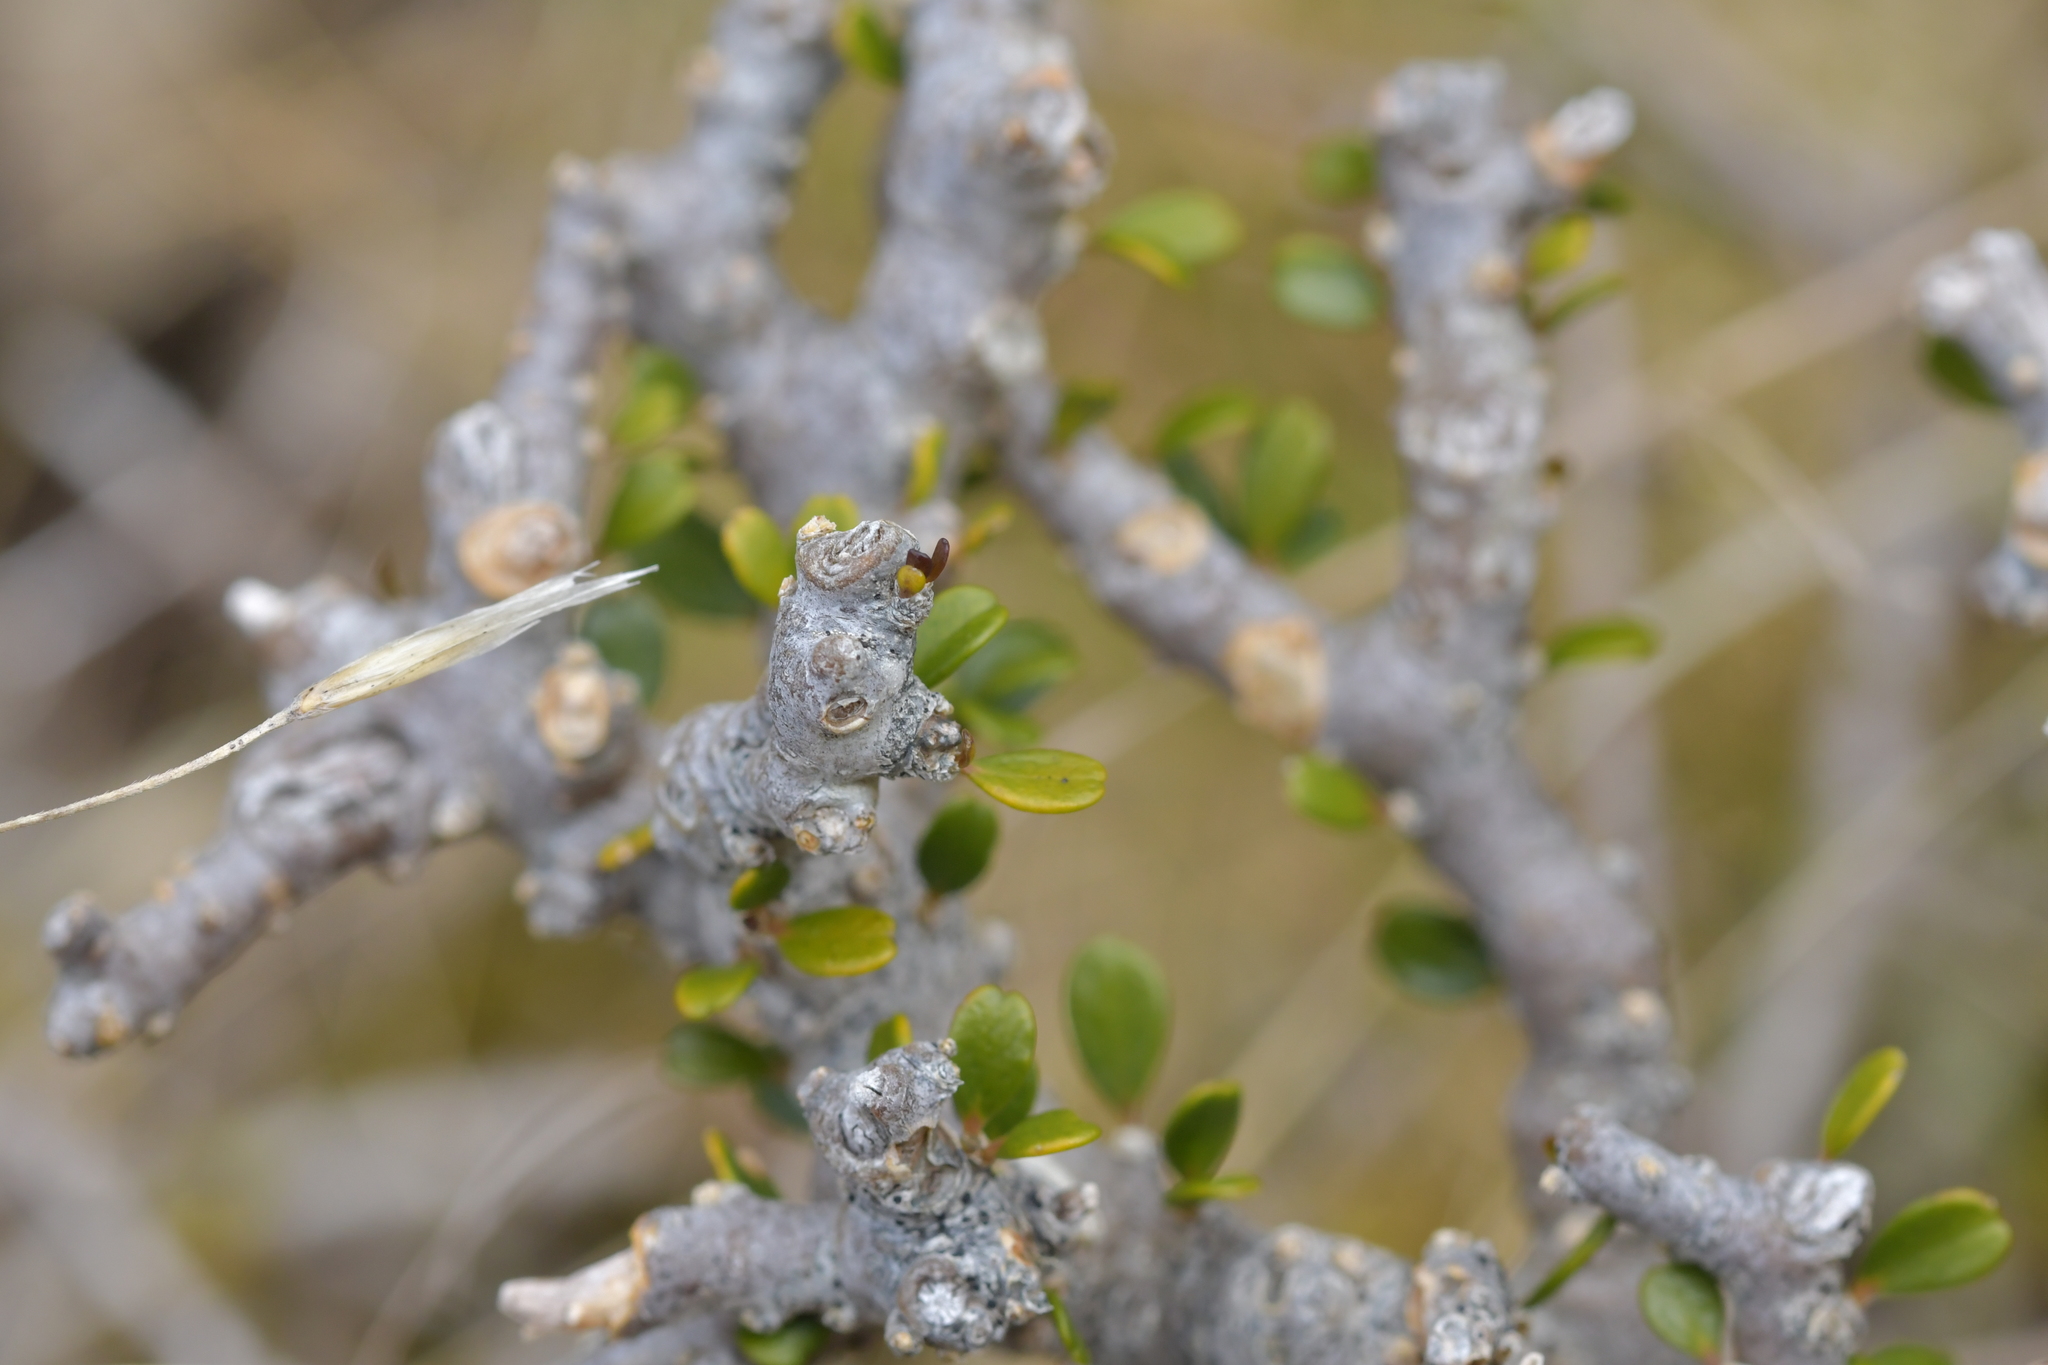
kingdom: Plantae
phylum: Tracheophyta
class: Magnoliopsida
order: Malpighiales
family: Violaceae
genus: Melicytus
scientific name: Melicytus alpinus
